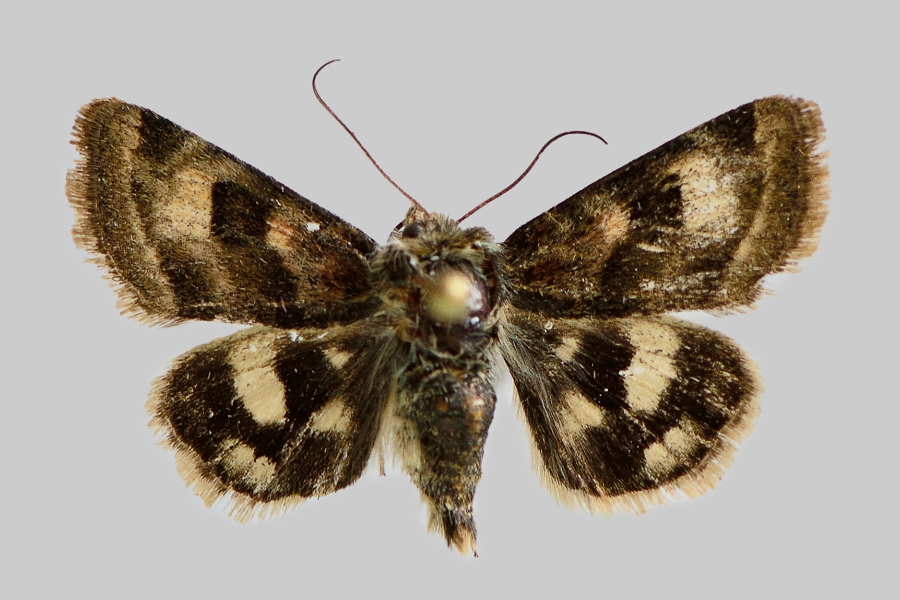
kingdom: Animalia
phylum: Arthropoda
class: Insecta
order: Lepidoptera
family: Noctuidae
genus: Heliothis
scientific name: Heliothis ononis
